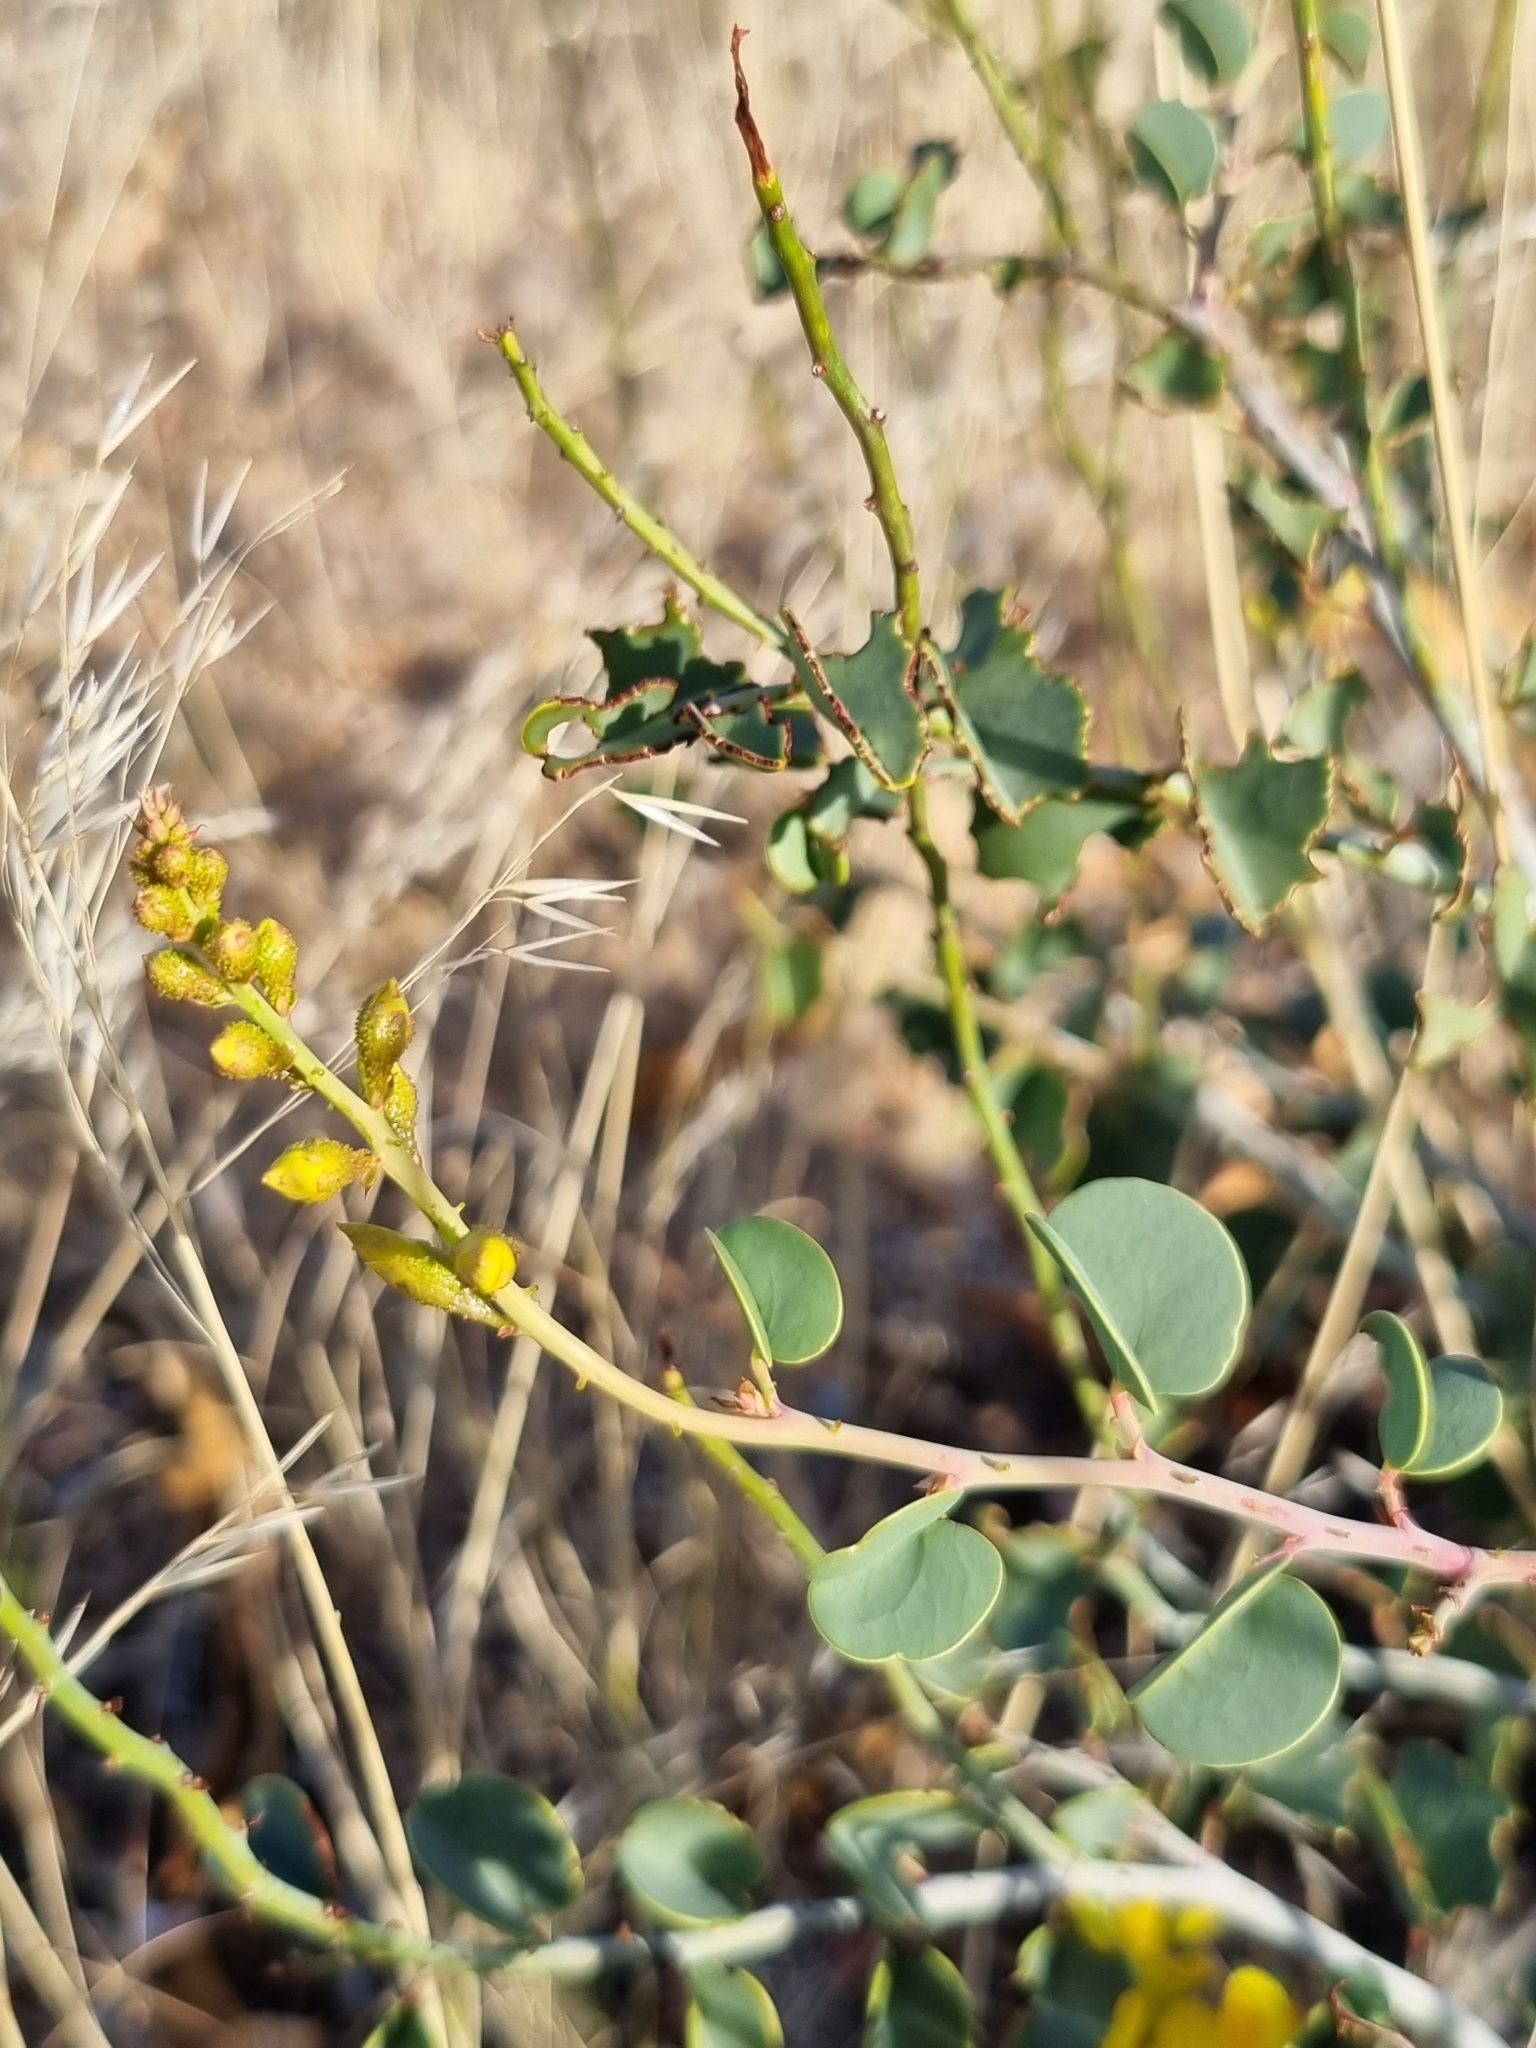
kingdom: Plantae
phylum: Tracheophyta
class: Magnoliopsida
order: Fabales
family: Fabaceae
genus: Adenolobus
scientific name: Adenolobus pechuelii
